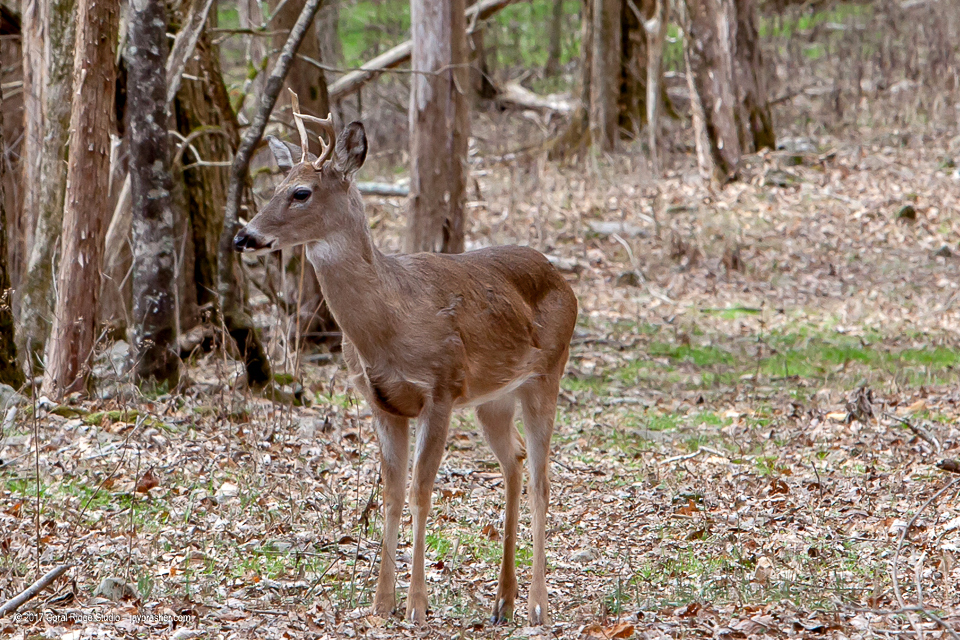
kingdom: Animalia
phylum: Chordata
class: Mammalia
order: Artiodactyla
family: Cervidae
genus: Odocoileus
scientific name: Odocoileus virginianus
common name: White-tailed deer
